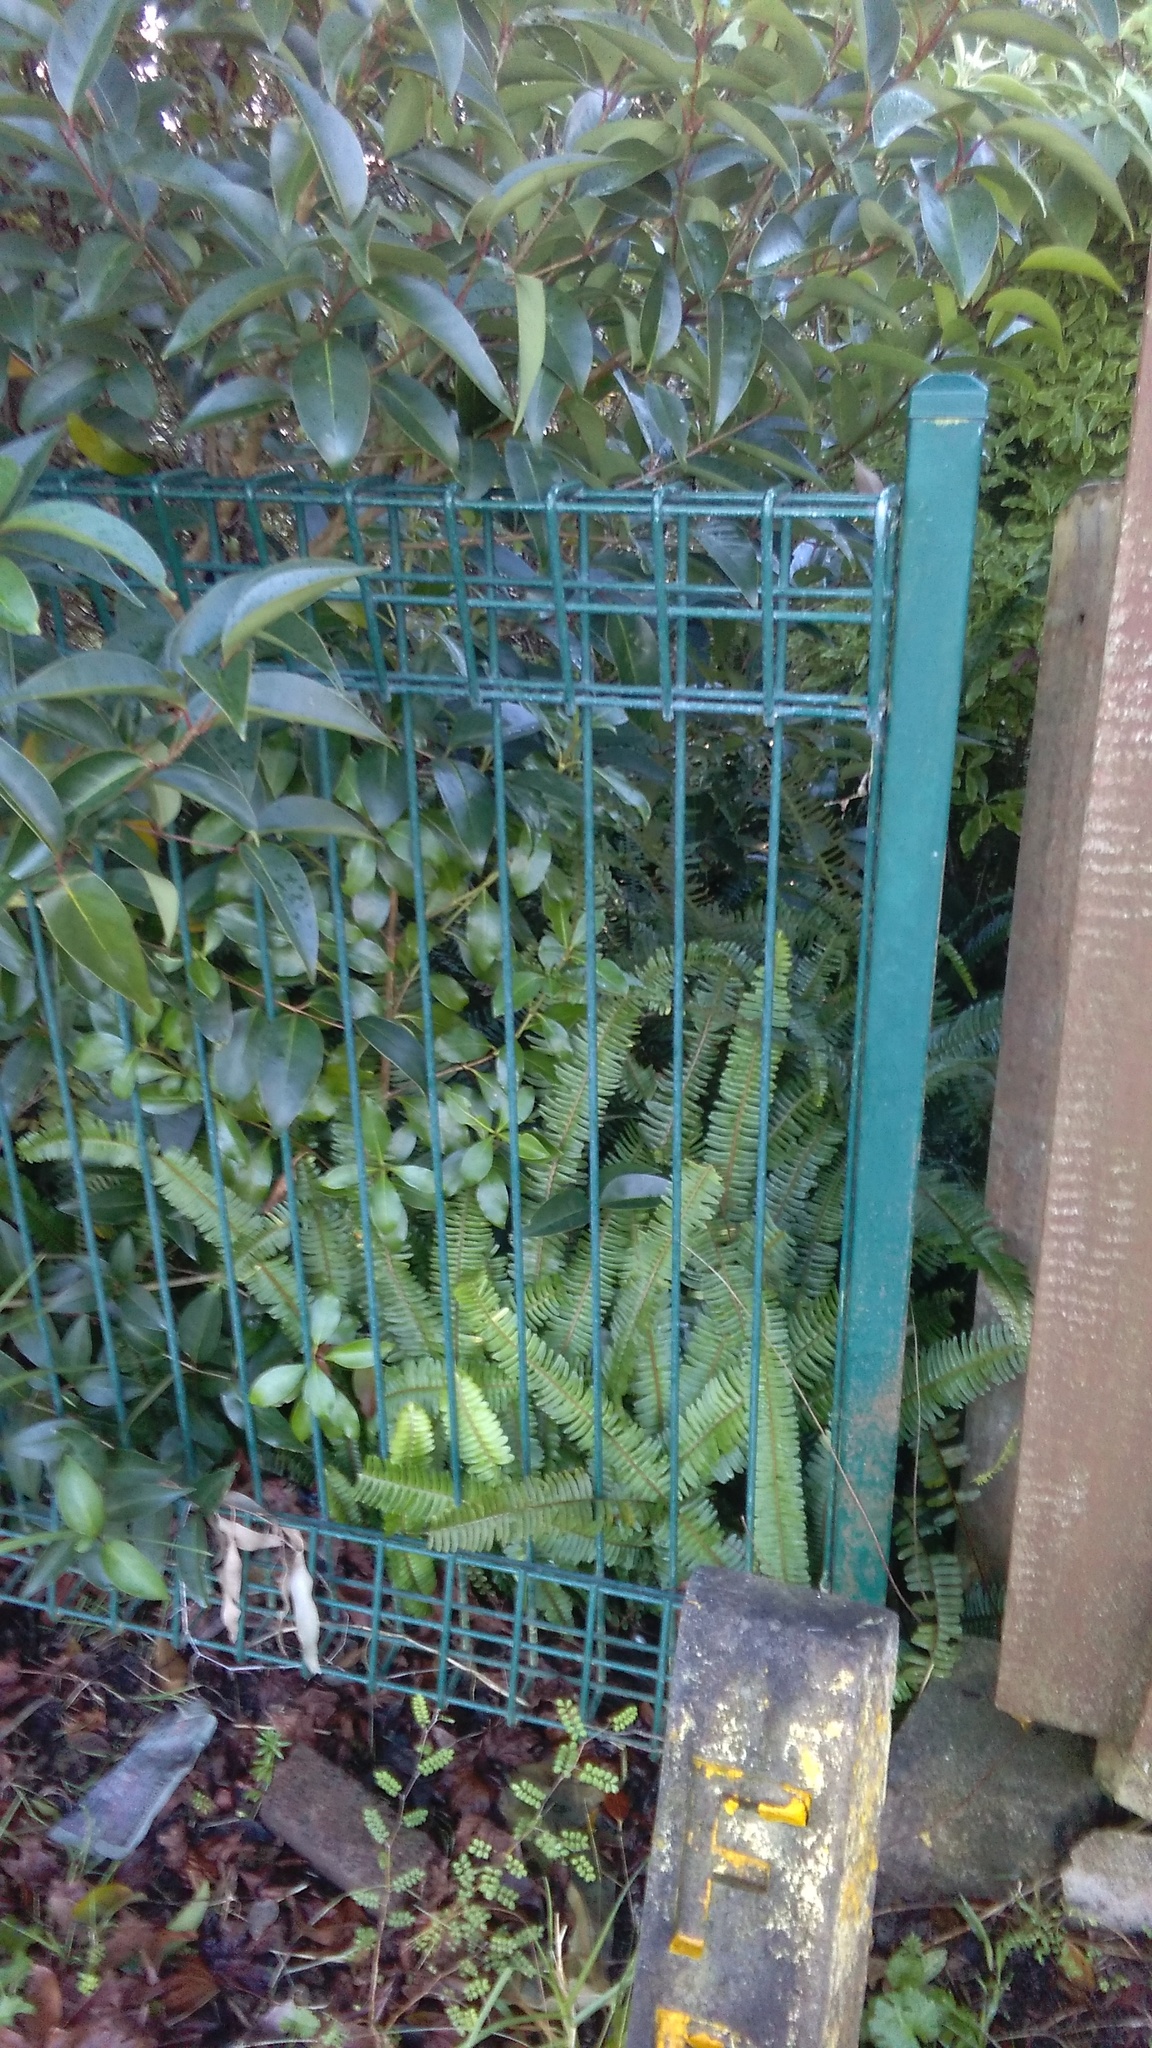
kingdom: Plantae
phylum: Tracheophyta
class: Polypodiopsida
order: Polypodiales
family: Nephrolepidaceae
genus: Nephrolepis
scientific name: Nephrolepis cordifolia
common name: Narrow swordfern
